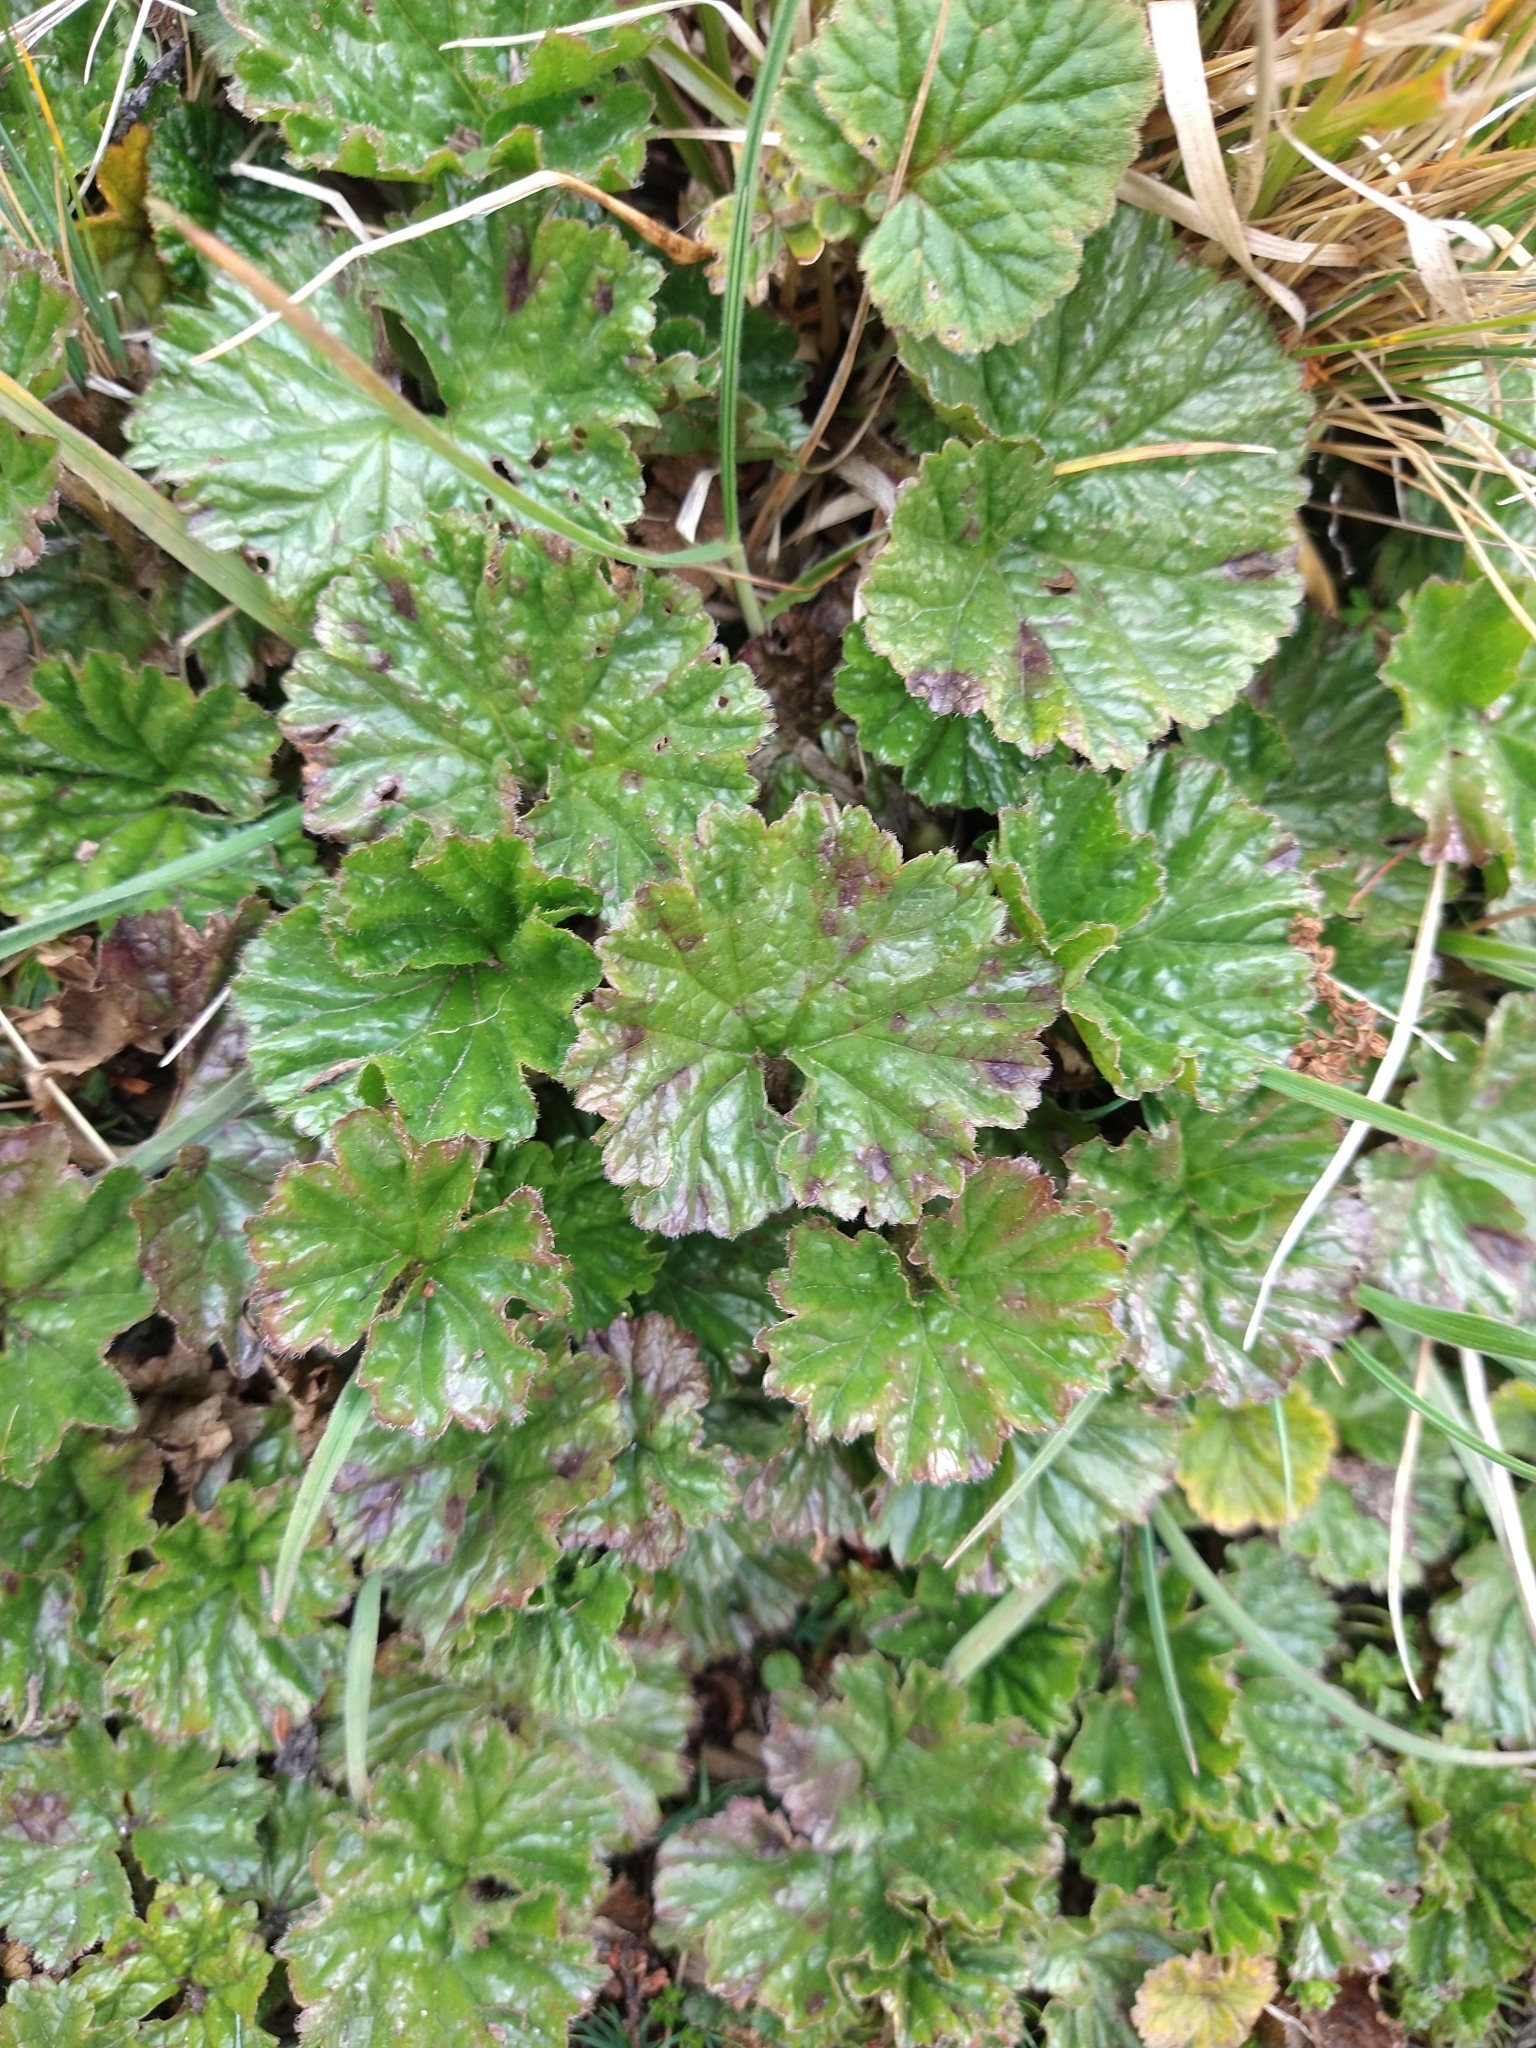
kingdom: Plantae
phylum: Tracheophyta
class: Magnoliopsida
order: Gunnerales
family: Gunneraceae
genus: Gunnera
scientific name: Gunnera magellanica
